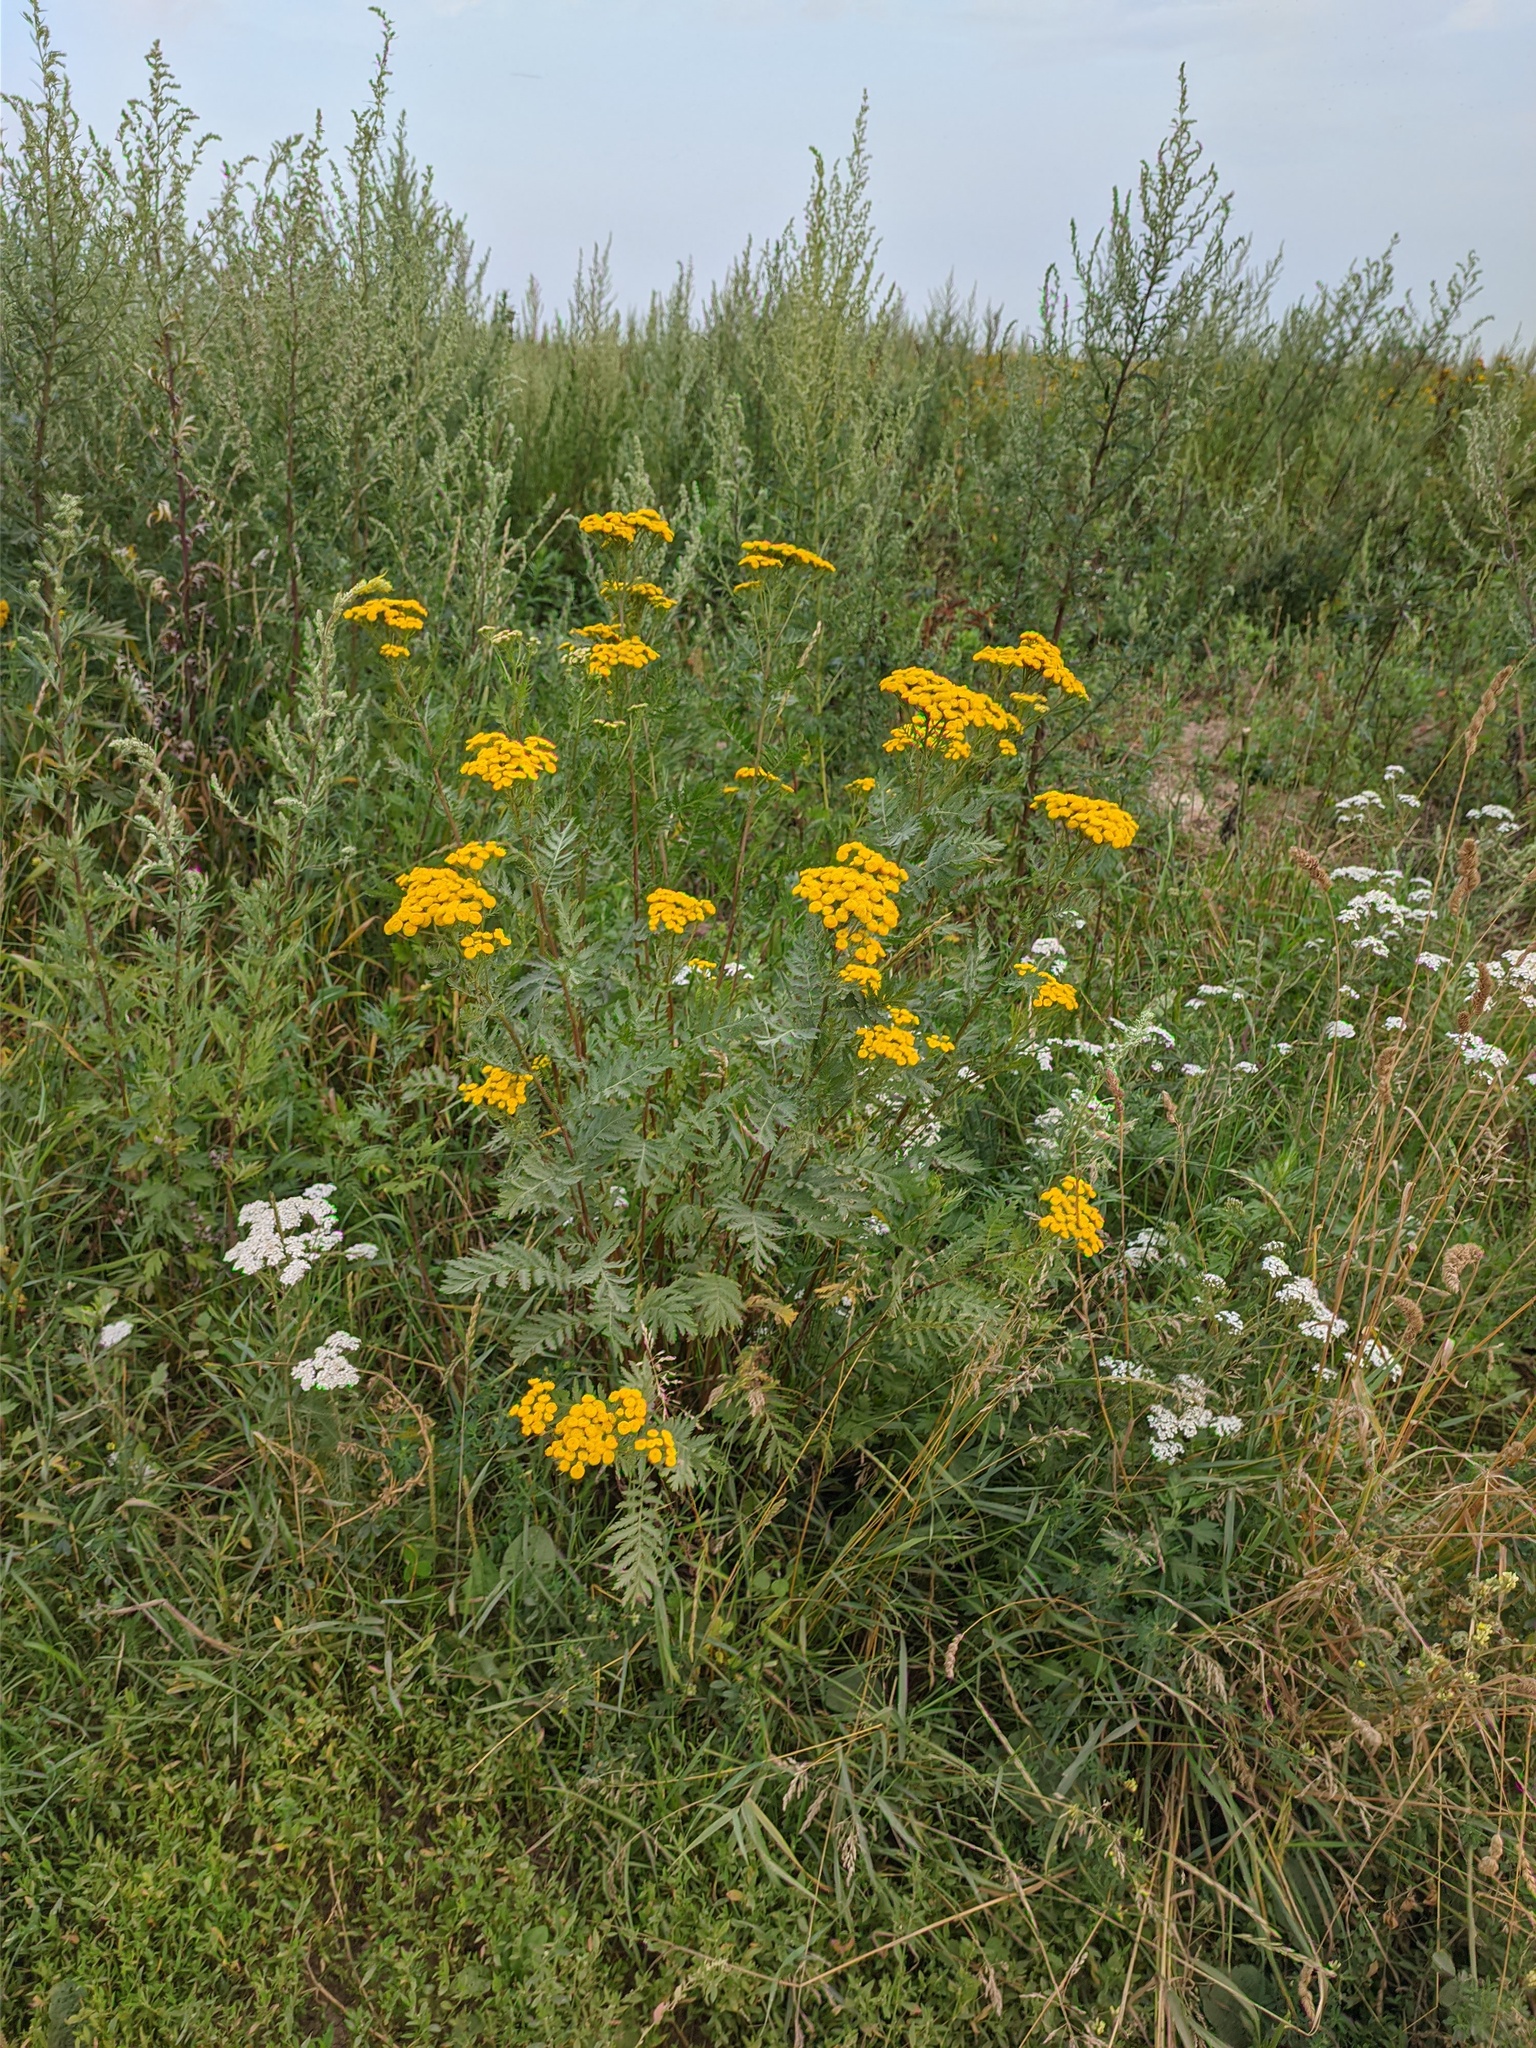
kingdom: Plantae
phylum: Tracheophyta
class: Magnoliopsida
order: Asterales
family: Asteraceae
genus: Tanacetum
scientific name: Tanacetum vulgare
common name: Common tansy
